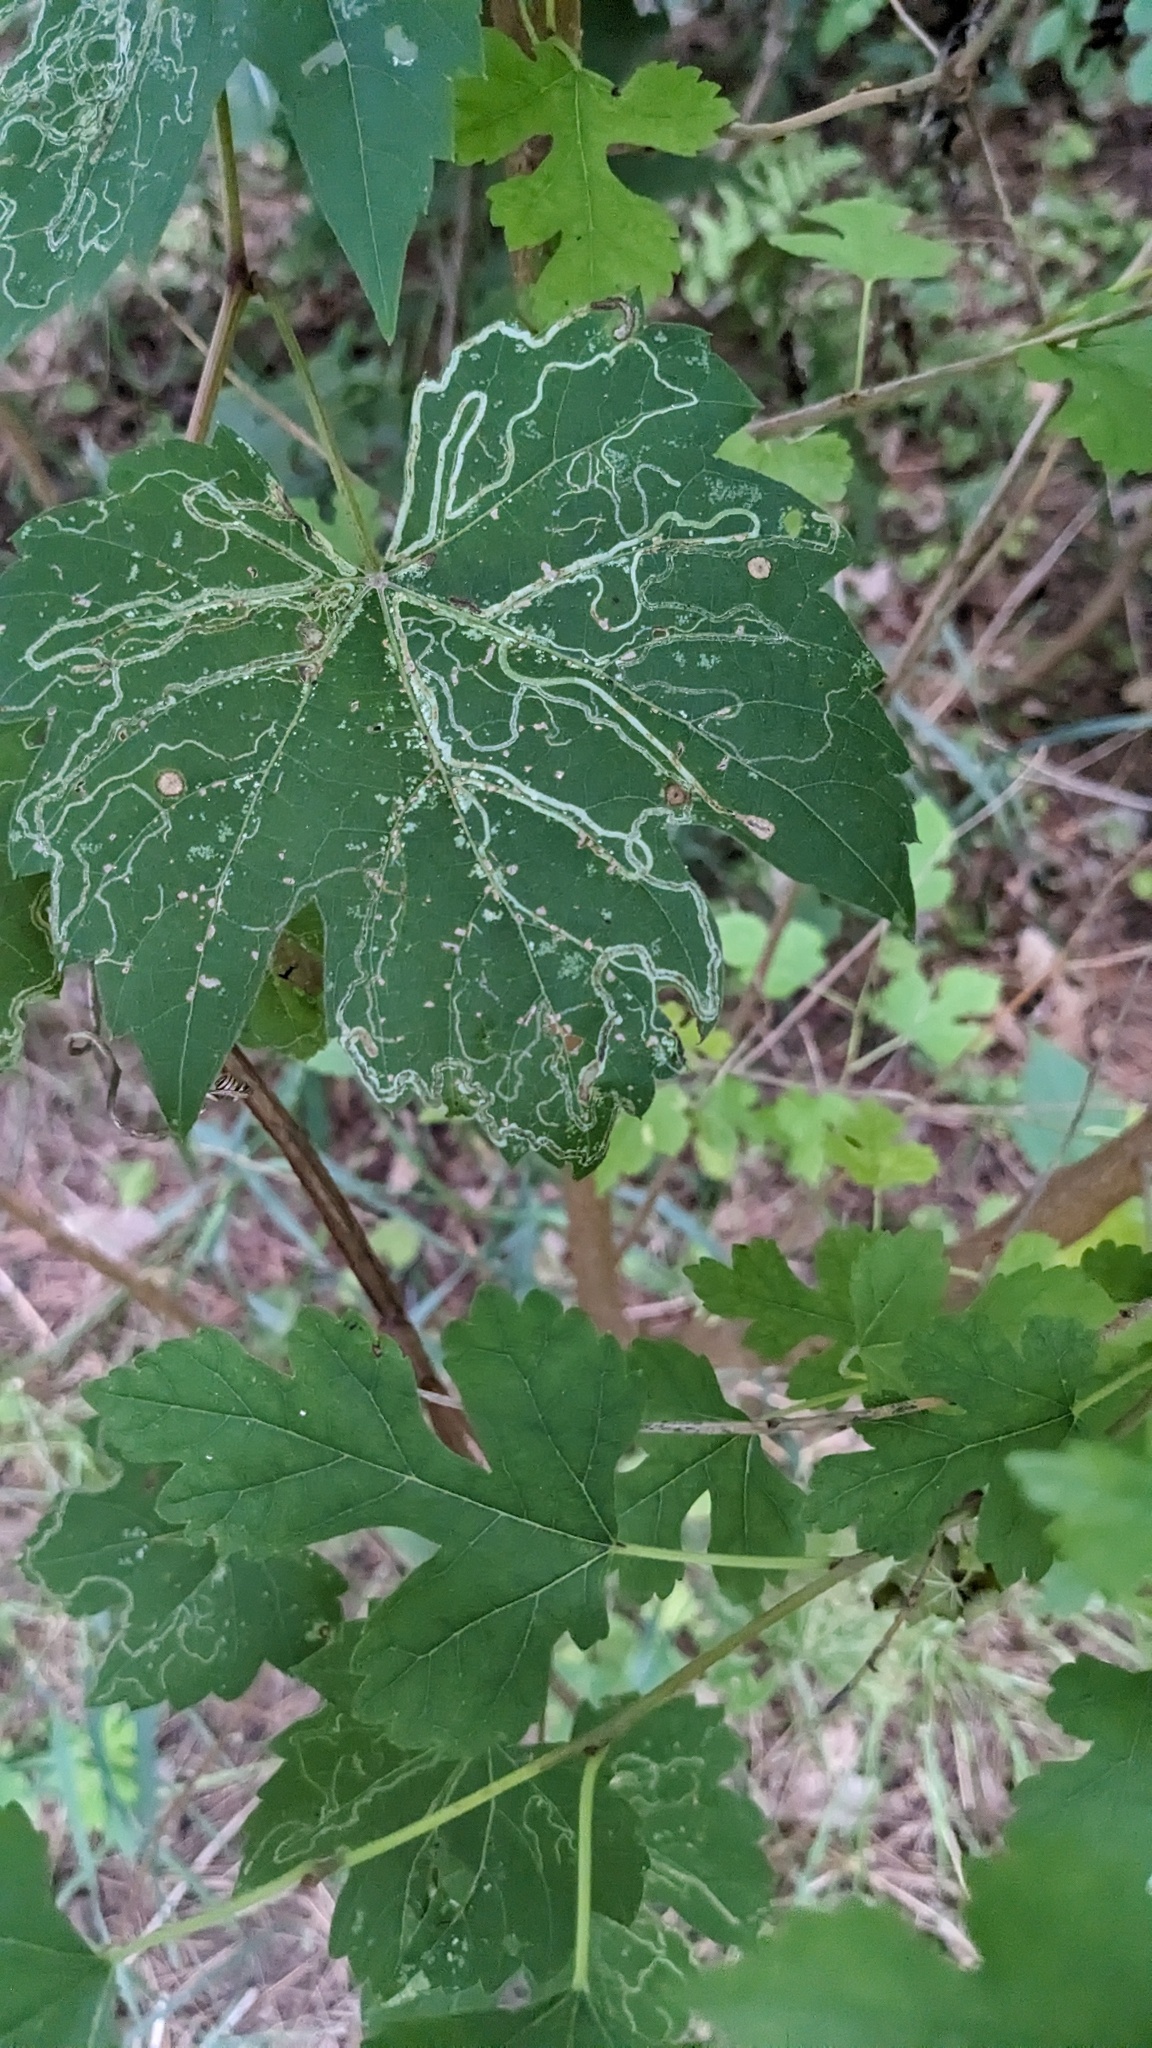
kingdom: Animalia
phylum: Arthropoda
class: Insecta
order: Lepidoptera
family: Gracillariidae
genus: Phyllocnistis
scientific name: Phyllocnistis vitifoliella
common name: Grape leaf-miner moth
